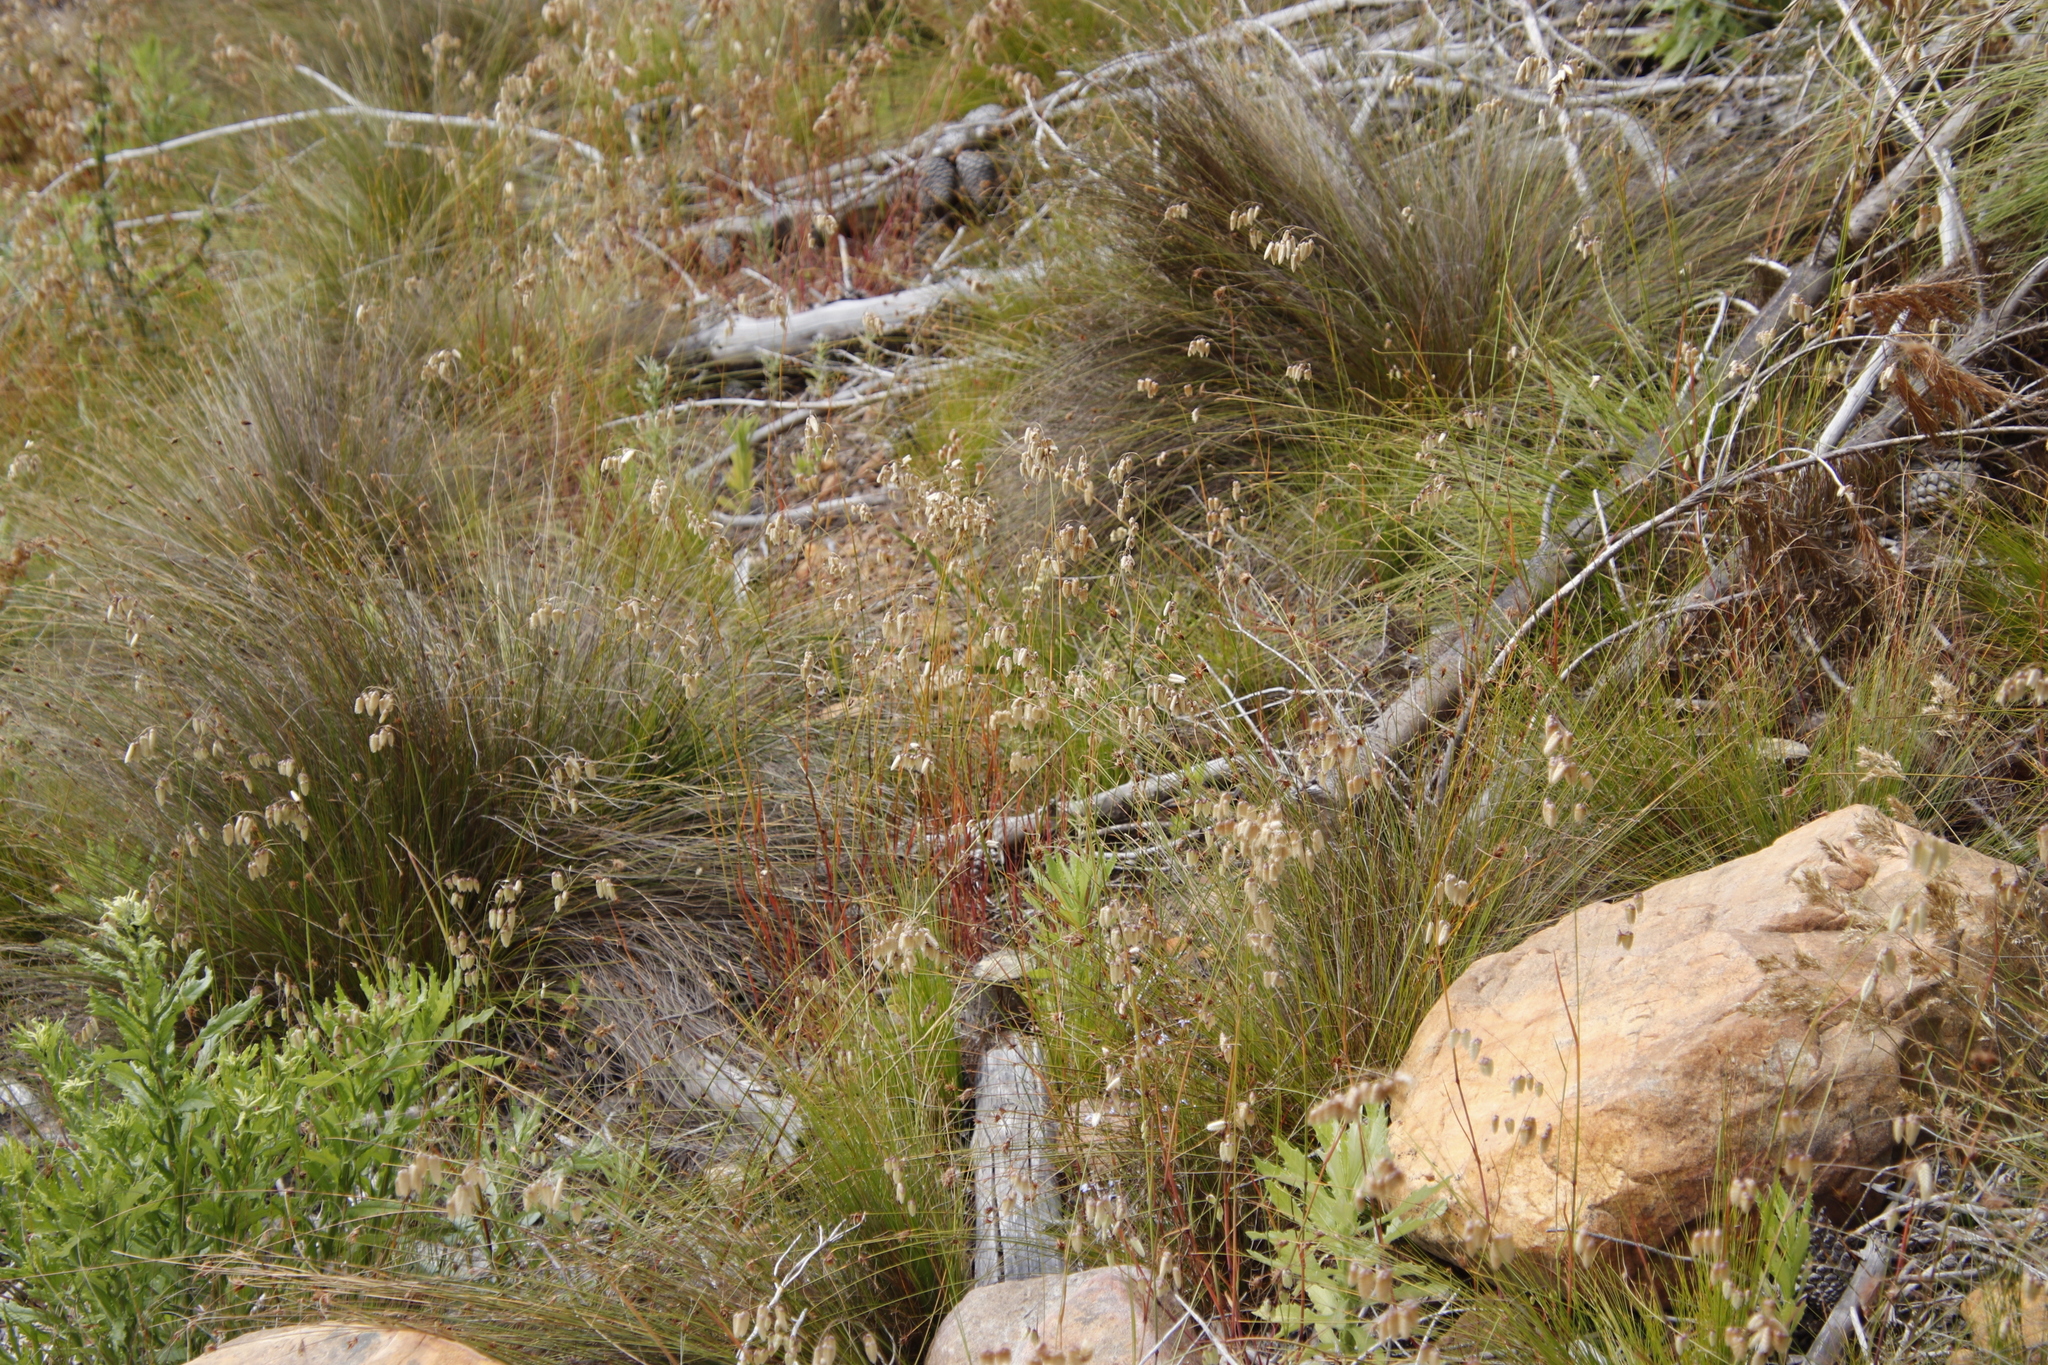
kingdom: Plantae
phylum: Tracheophyta
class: Liliopsida
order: Poales
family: Poaceae
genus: Briza
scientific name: Briza maxima
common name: Big quakinggrass
